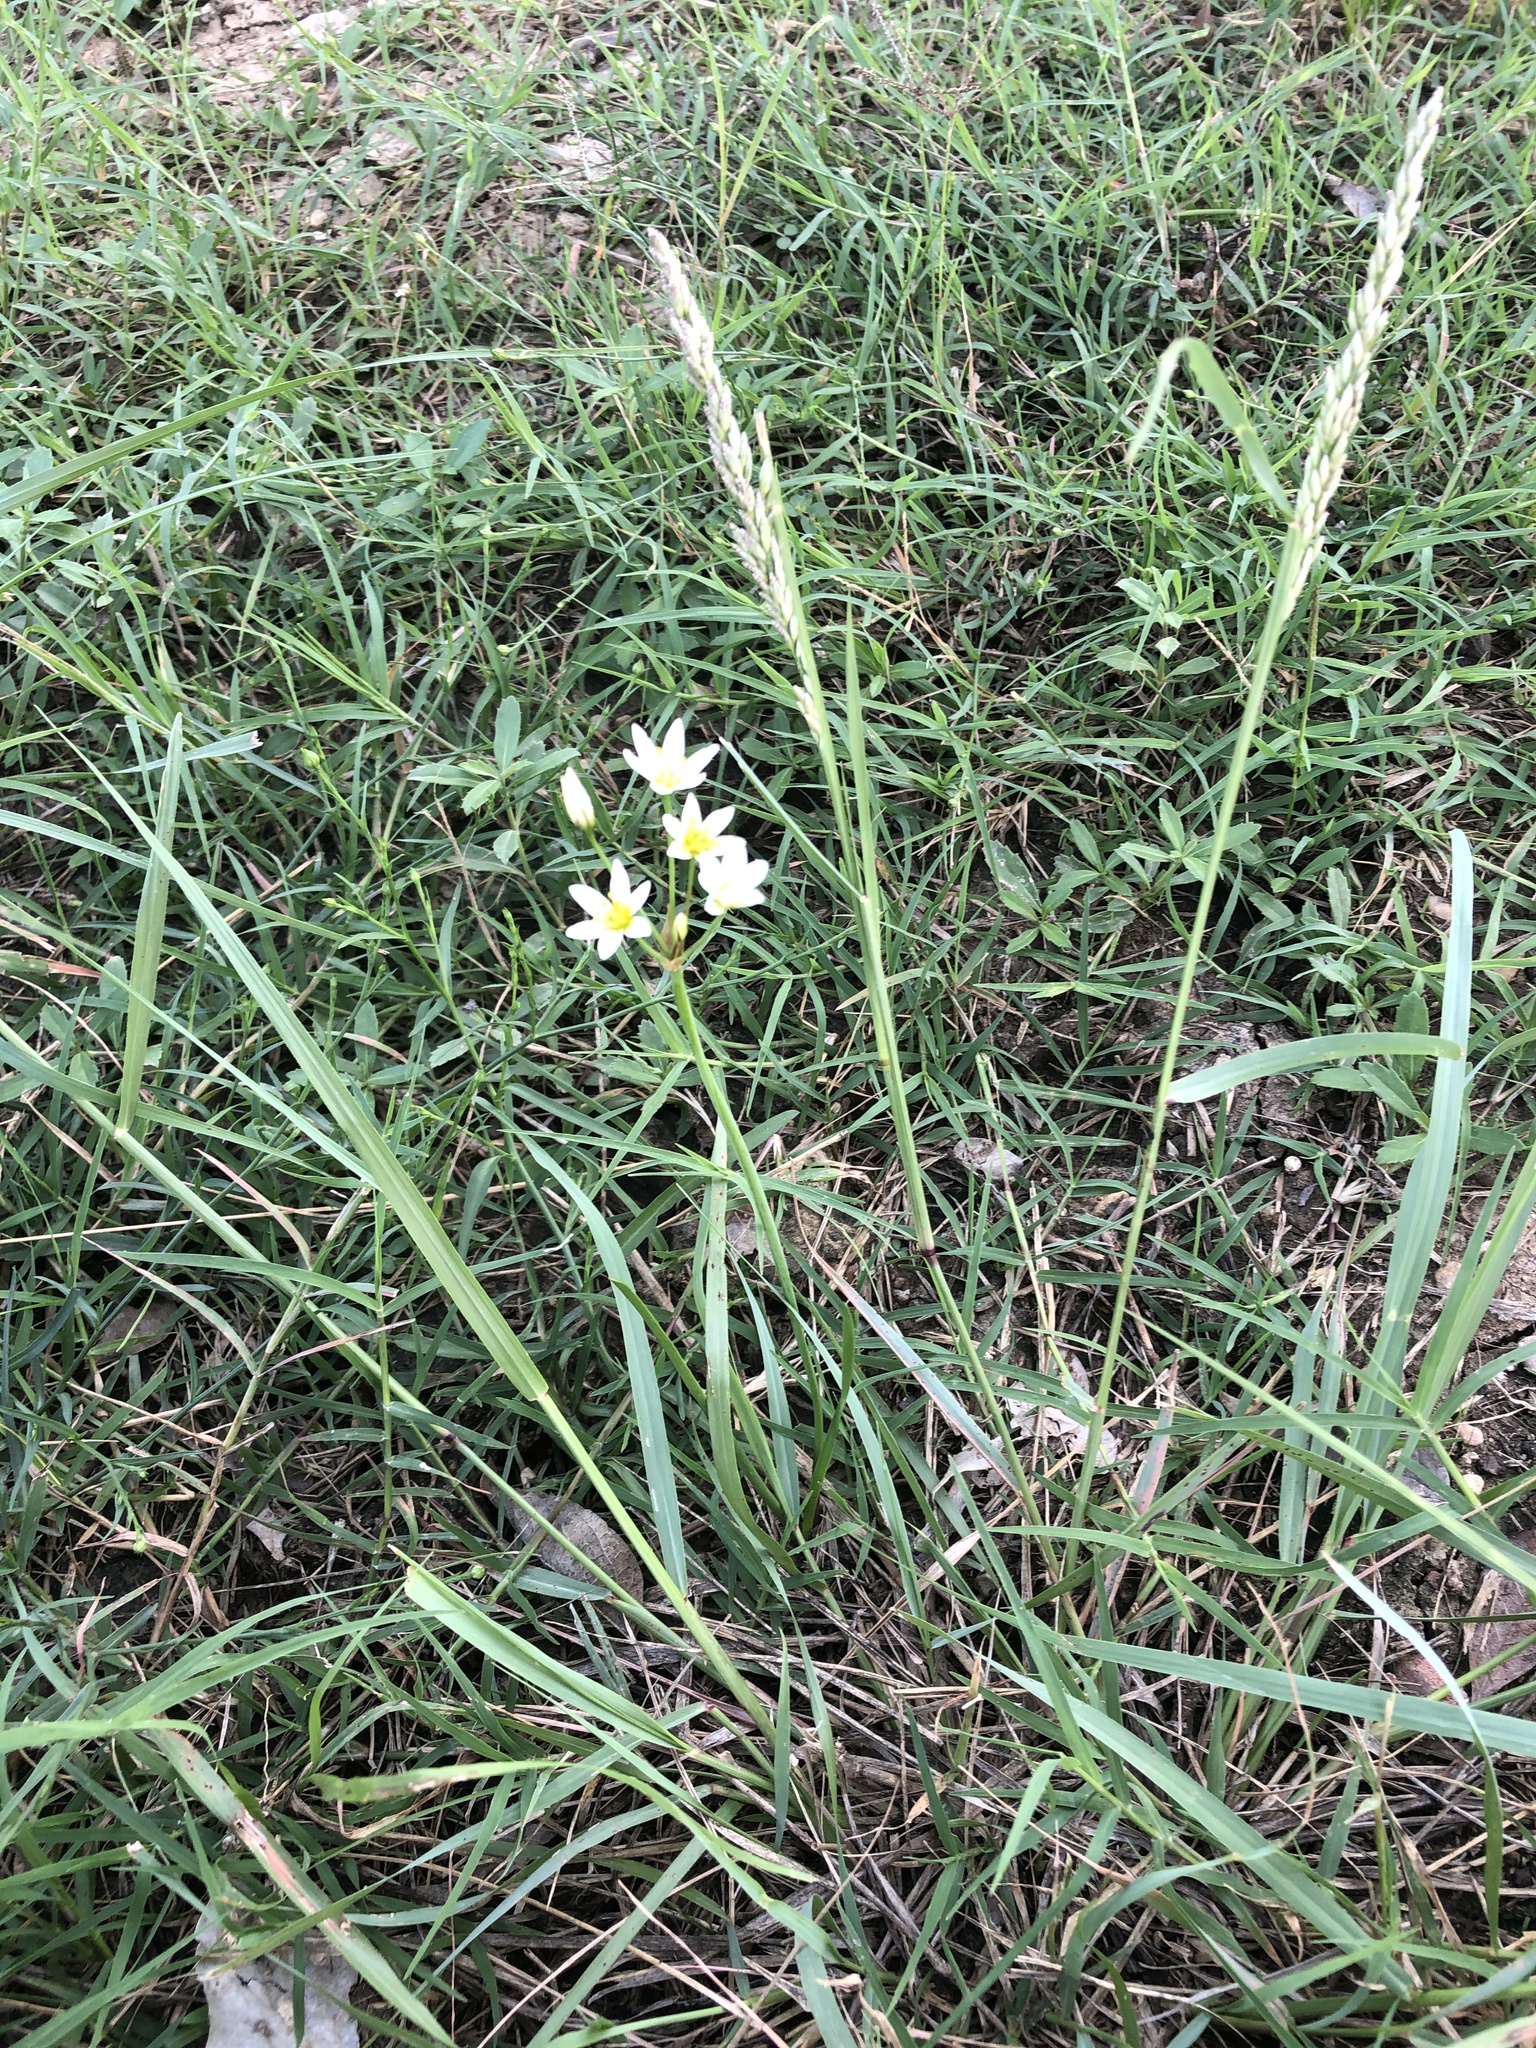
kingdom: Plantae
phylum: Tracheophyta
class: Liliopsida
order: Asparagales
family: Amaryllidaceae
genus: Nothoscordum
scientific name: Nothoscordum bivalve
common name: Crow-poison
